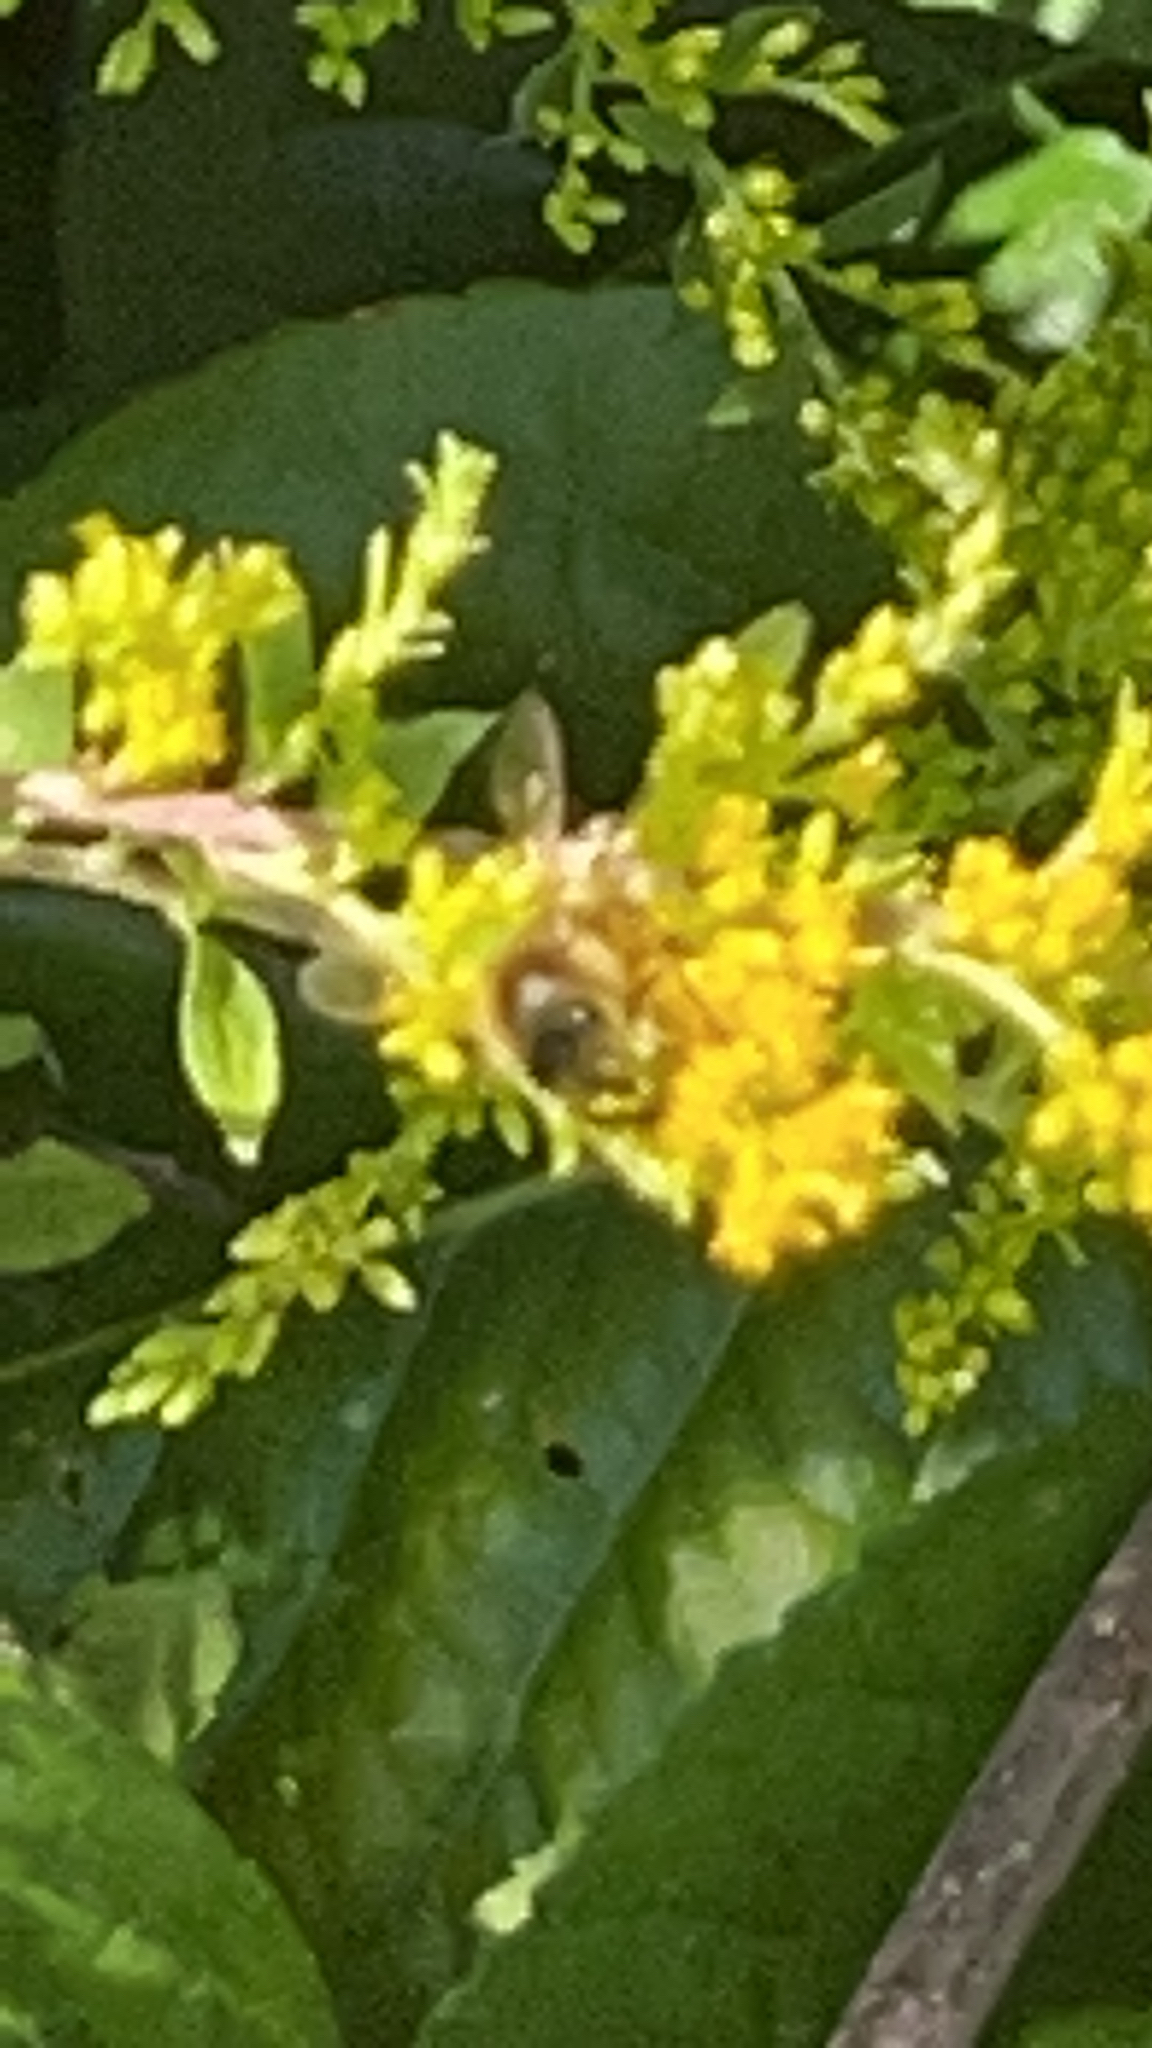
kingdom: Animalia
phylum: Arthropoda
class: Insecta
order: Hymenoptera
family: Apidae
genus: Apis
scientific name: Apis mellifera
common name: Honey bee
